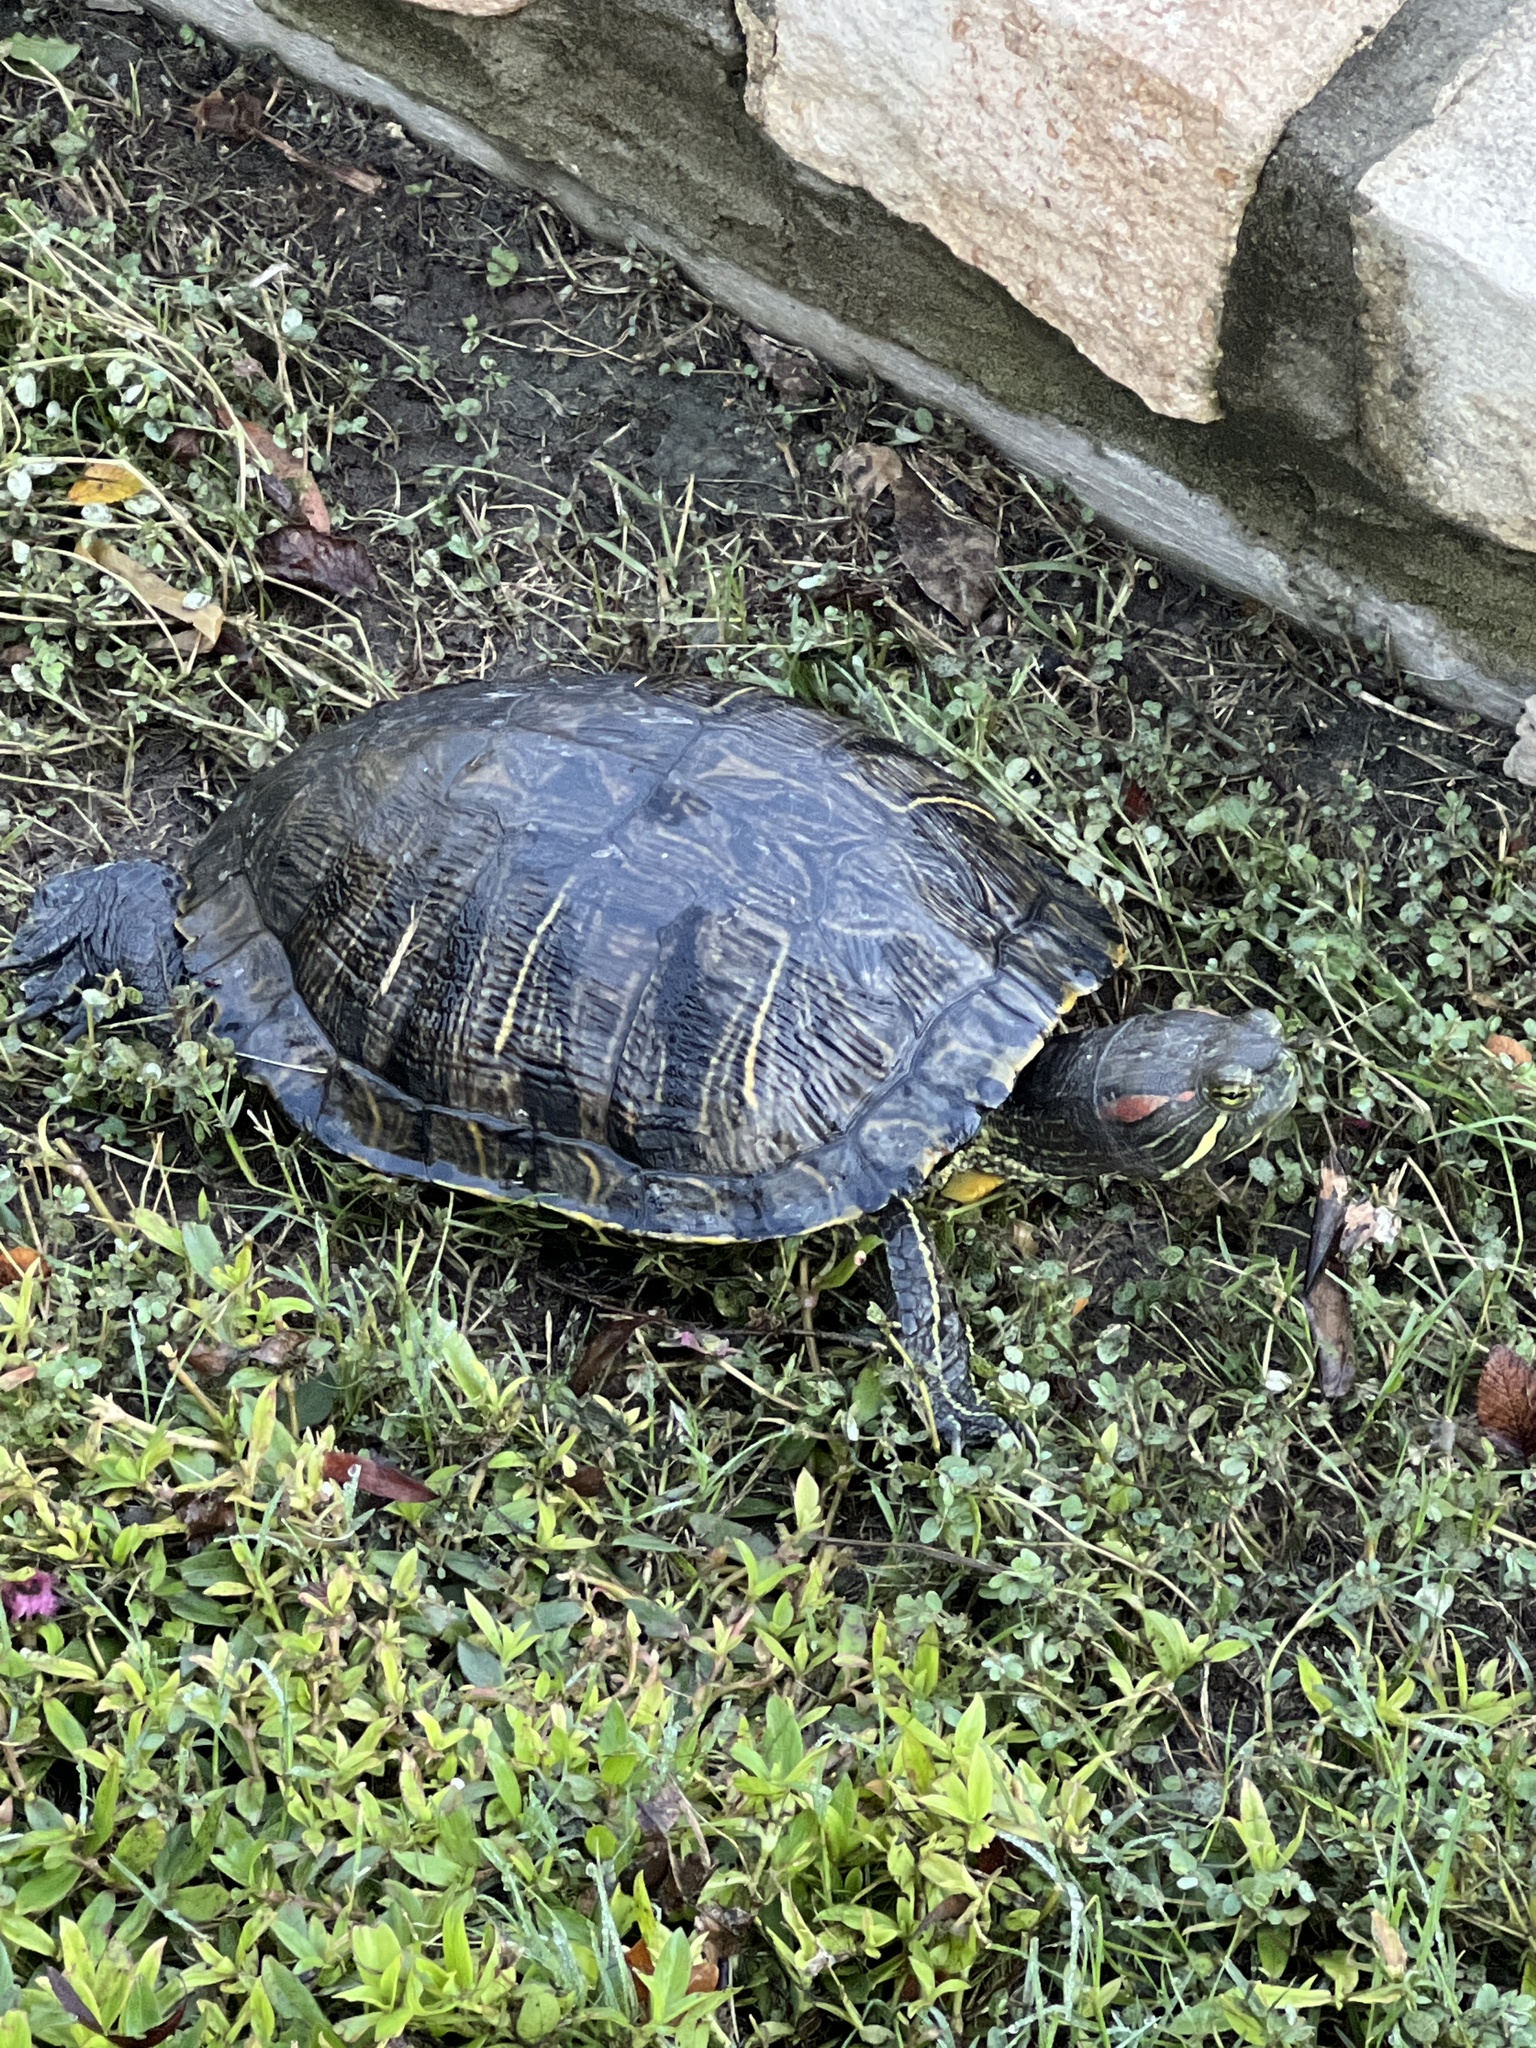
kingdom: Animalia
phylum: Chordata
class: Testudines
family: Emydidae
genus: Trachemys
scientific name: Trachemys scripta
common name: Slider
